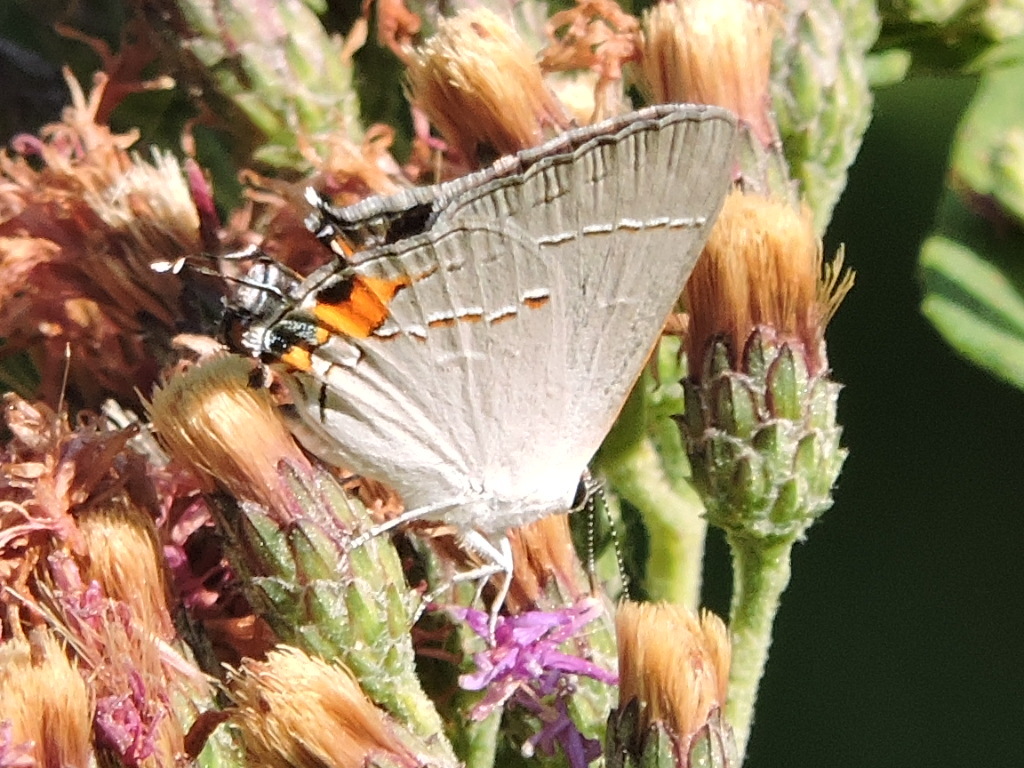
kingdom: Animalia
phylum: Arthropoda
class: Insecta
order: Lepidoptera
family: Lycaenidae
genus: Strymon
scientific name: Strymon melinus
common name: Gray hairstreak
